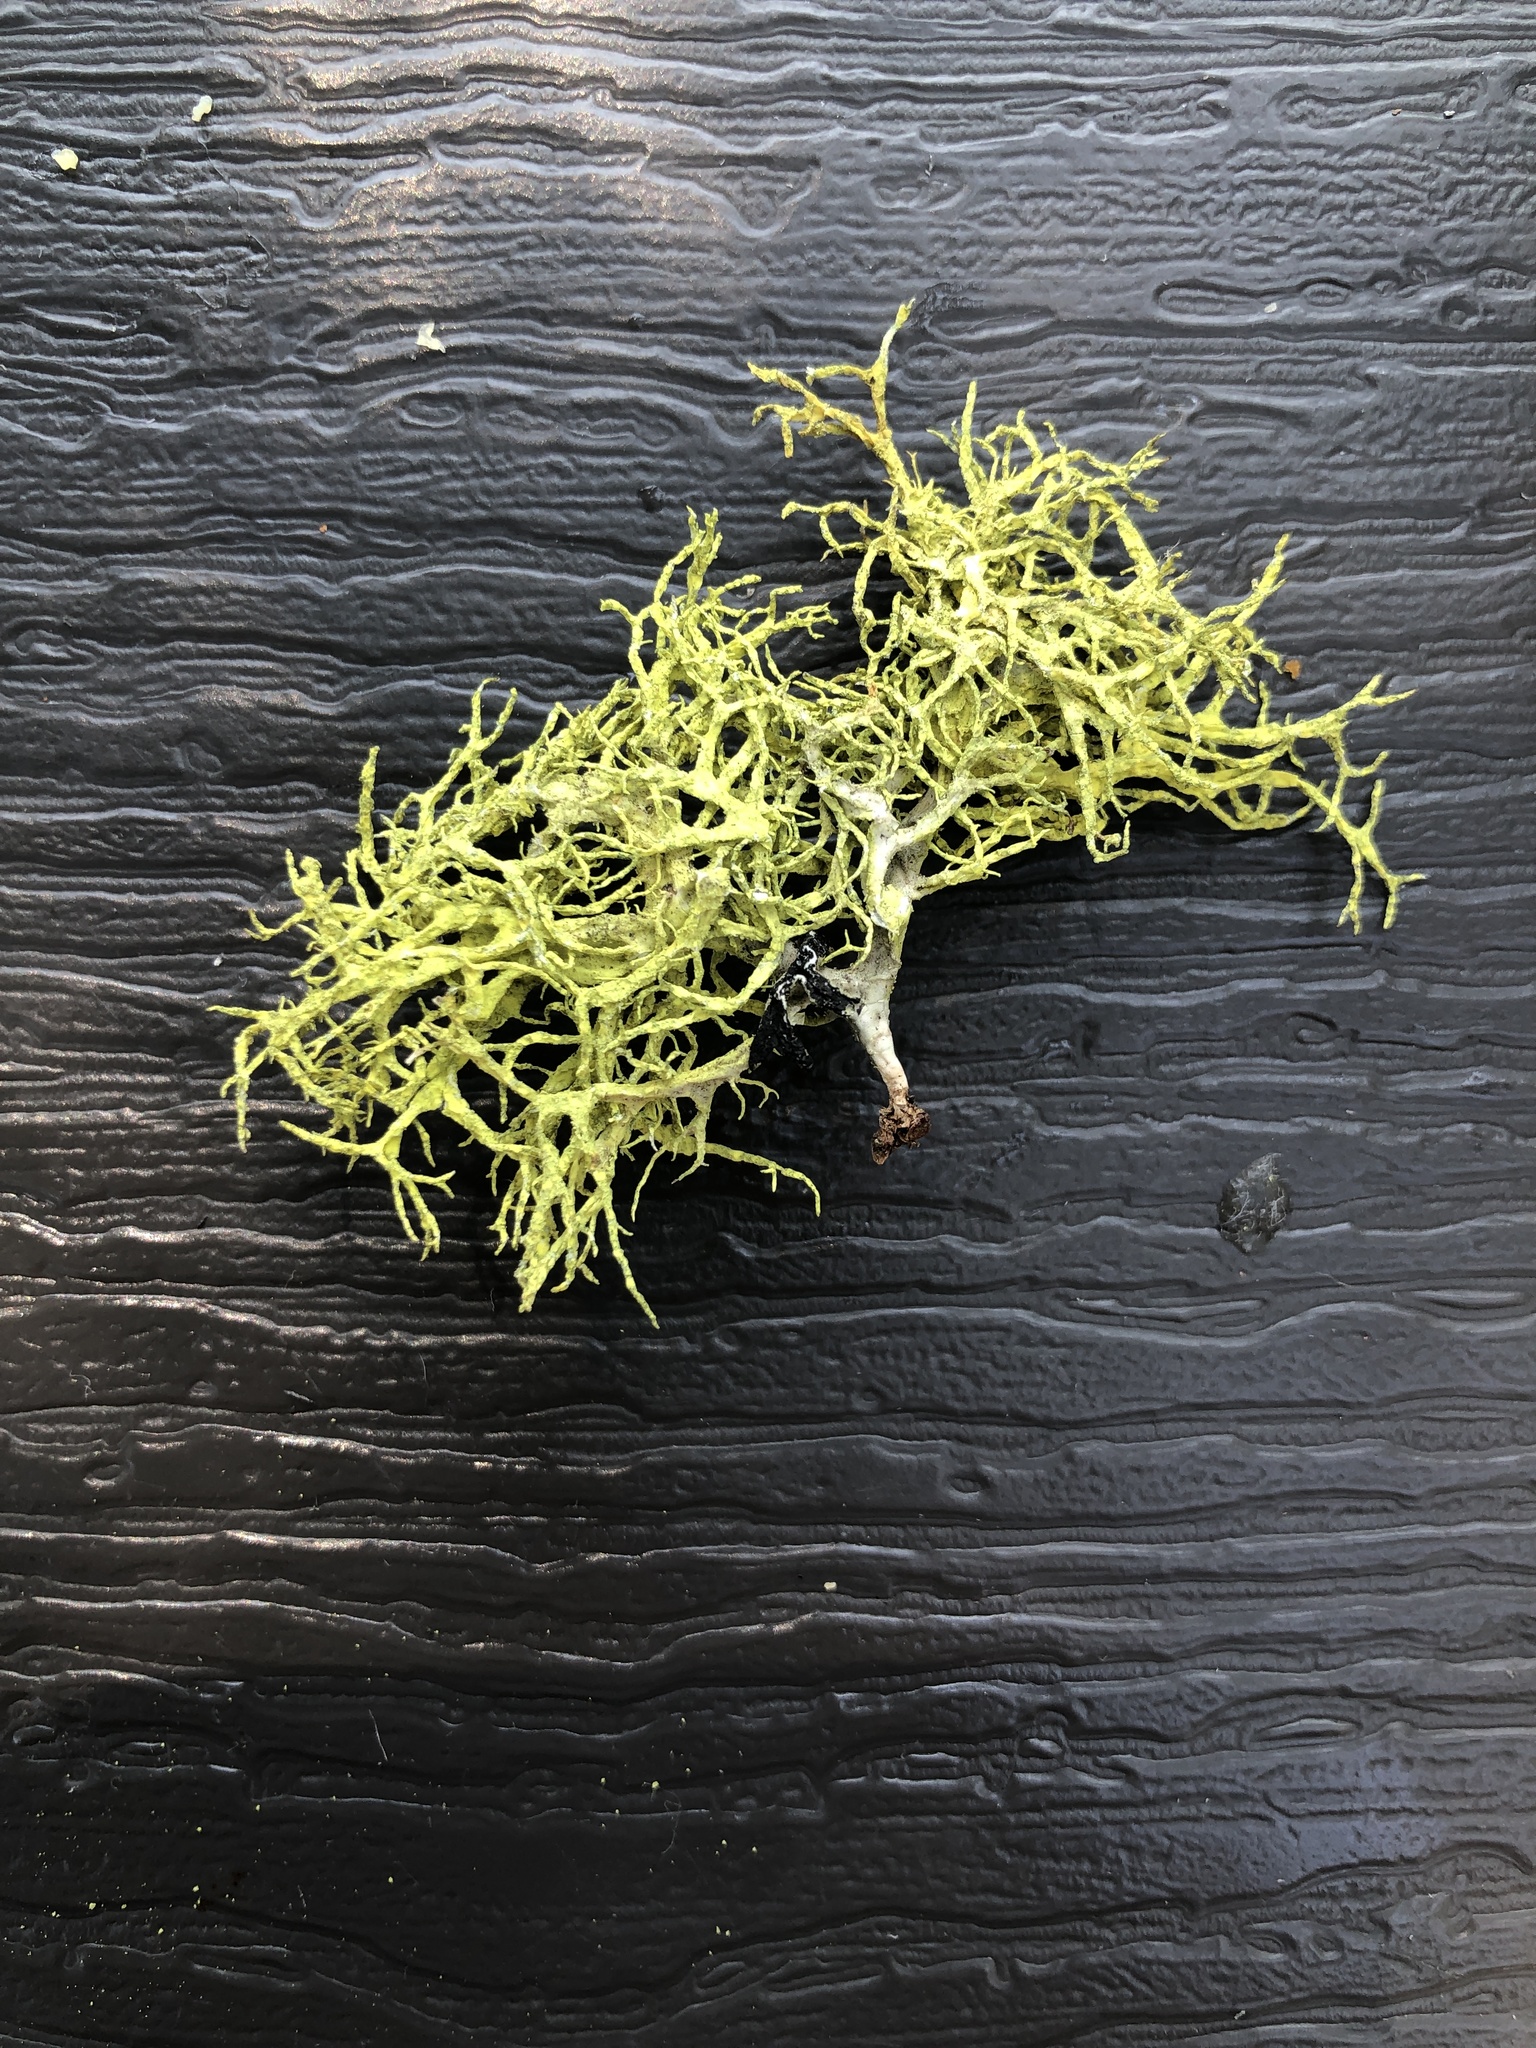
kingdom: Fungi
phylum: Ascomycota
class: Lecanoromycetes
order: Lecanorales
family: Parmeliaceae
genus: Letharia
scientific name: Letharia vulpina
